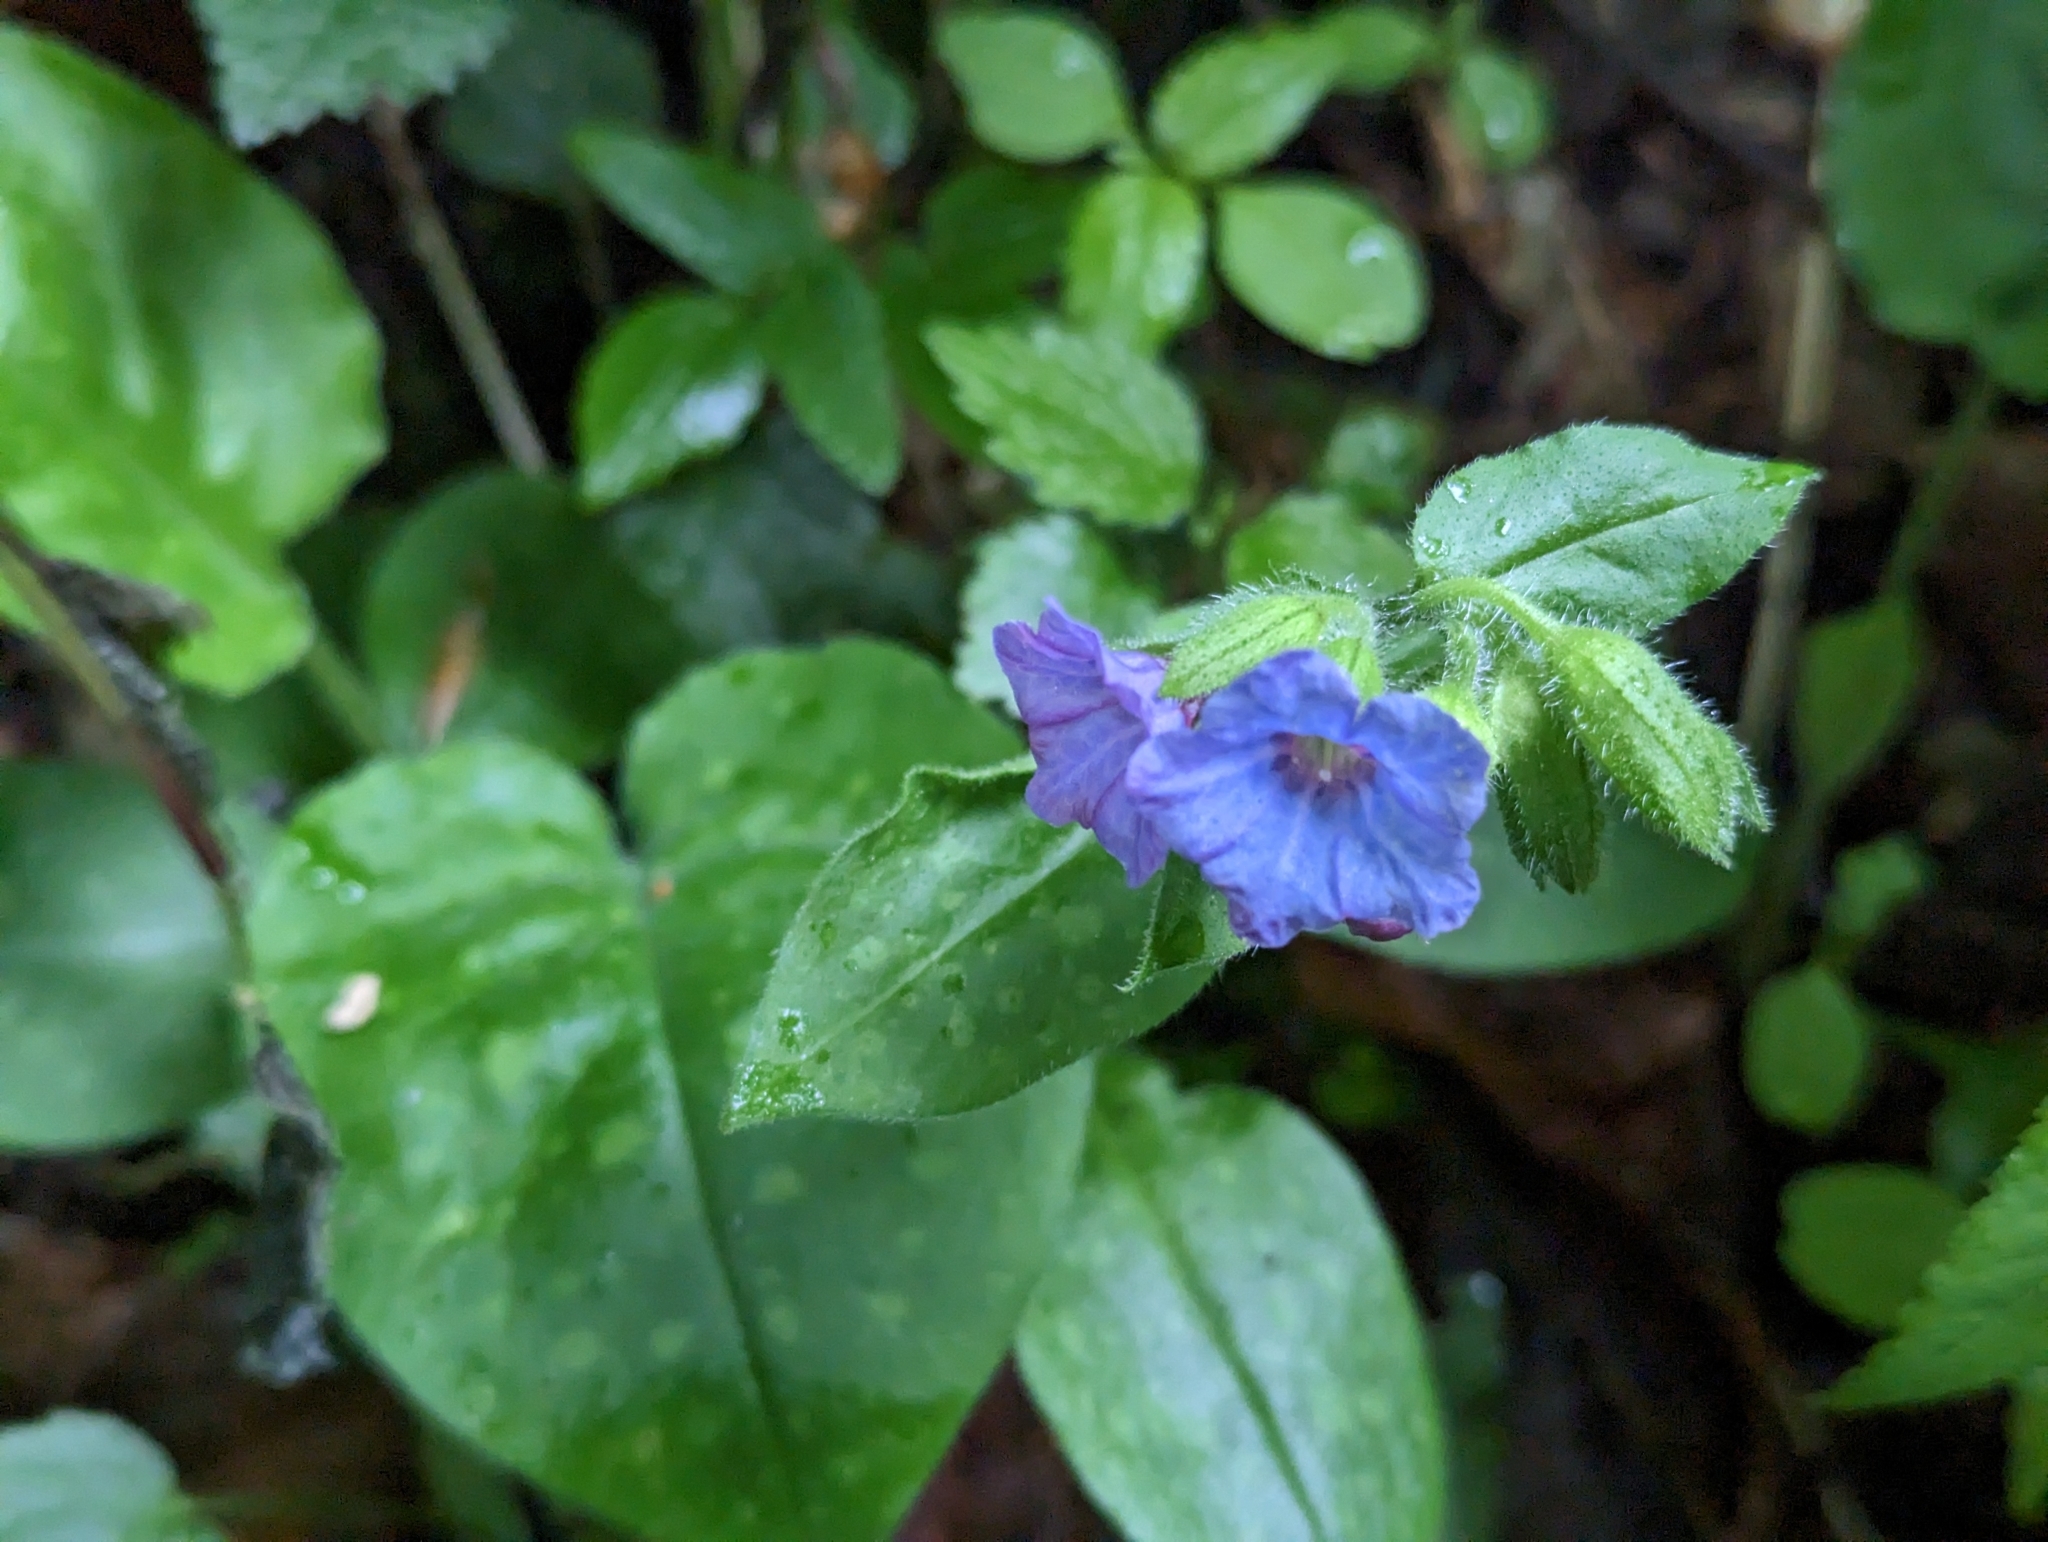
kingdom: Plantae
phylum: Tracheophyta
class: Magnoliopsida
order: Boraginales
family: Boraginaceae
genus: Pulmonaria
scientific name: Pulmonaria officinalis
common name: Lungwort
